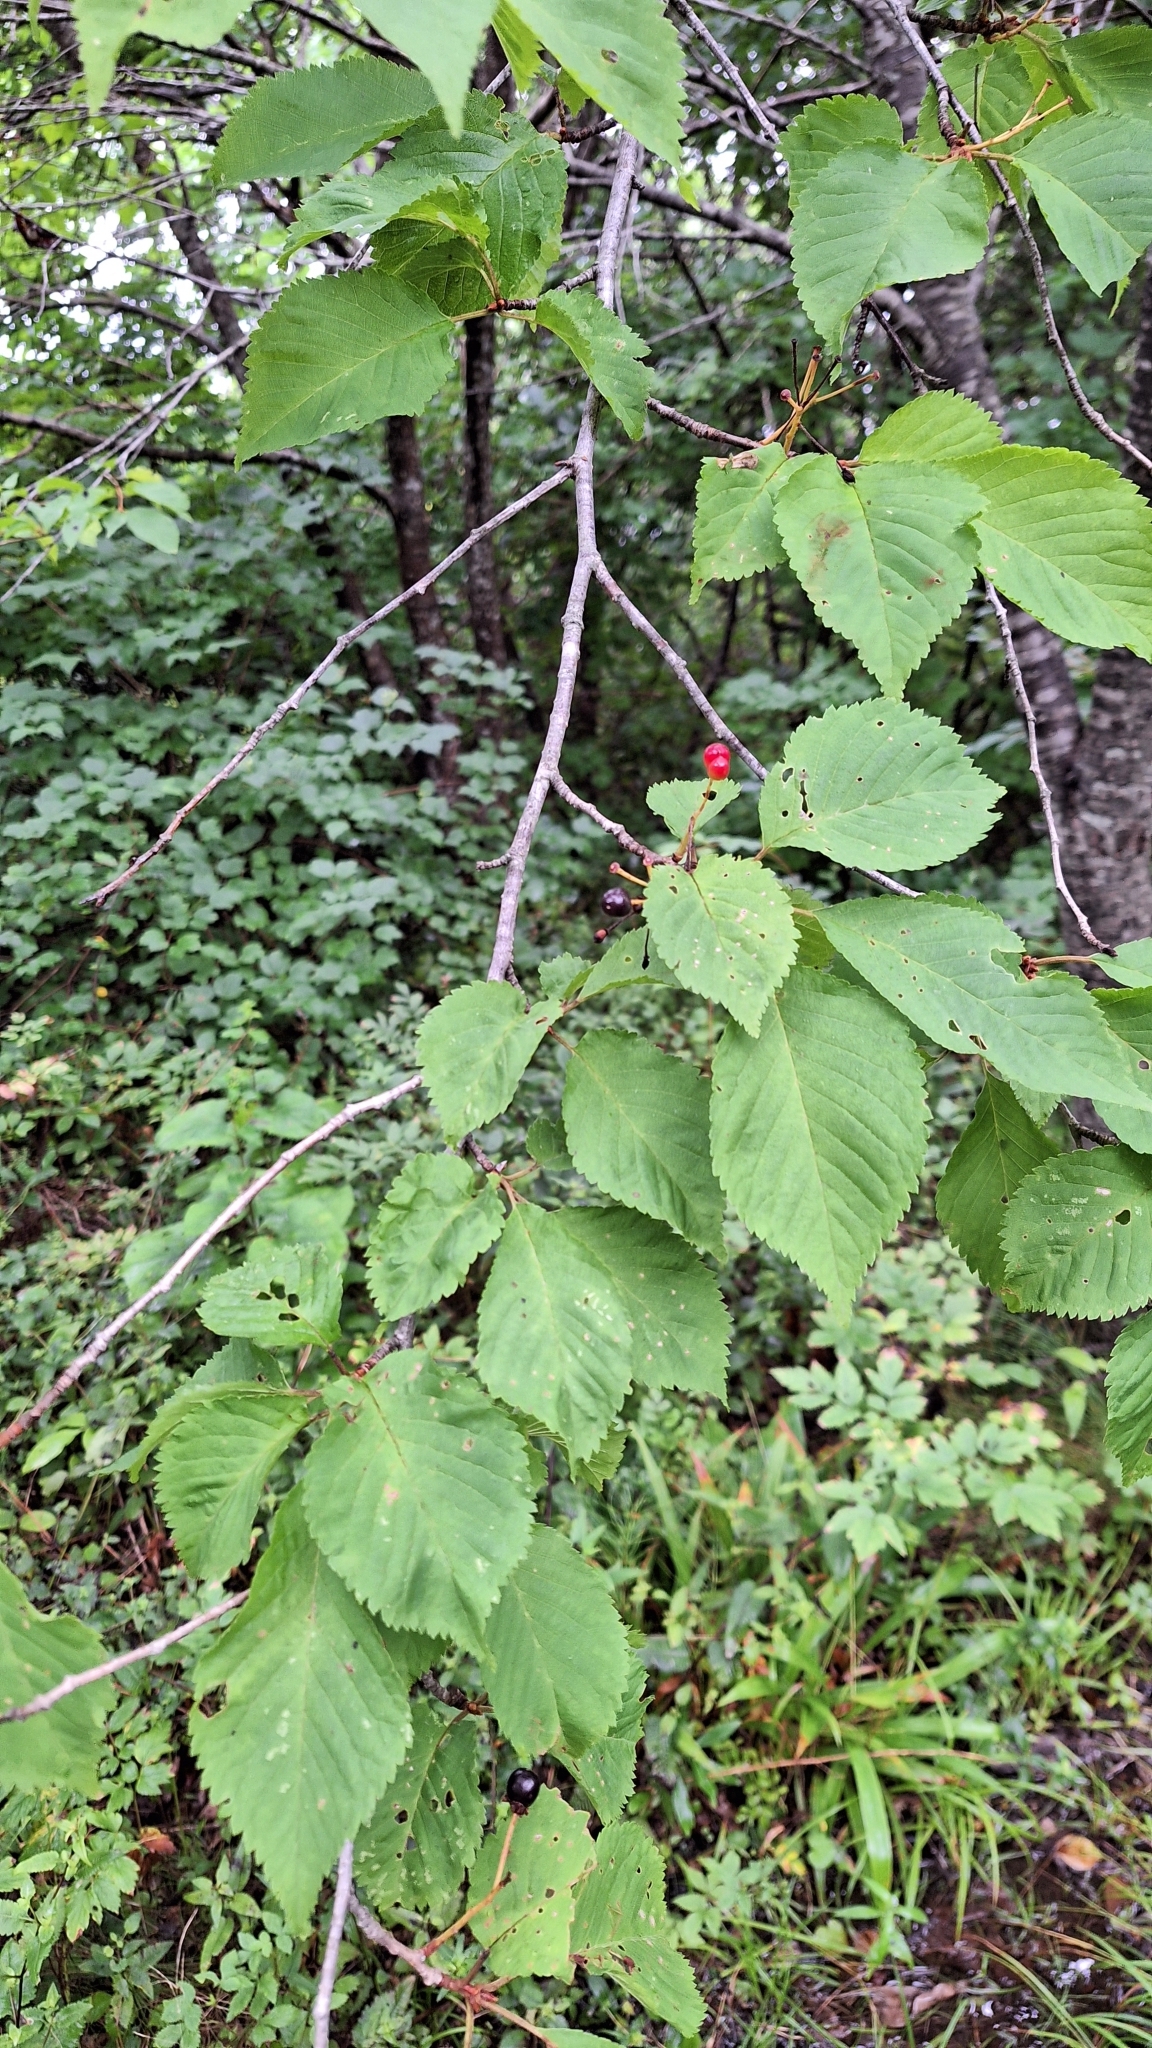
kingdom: Plantae
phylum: Tracheophyta
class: Magnoliopsida
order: Rosales
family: Rosaceae
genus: Prunus
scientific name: Prunus maximowiczii
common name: Korean cherry
